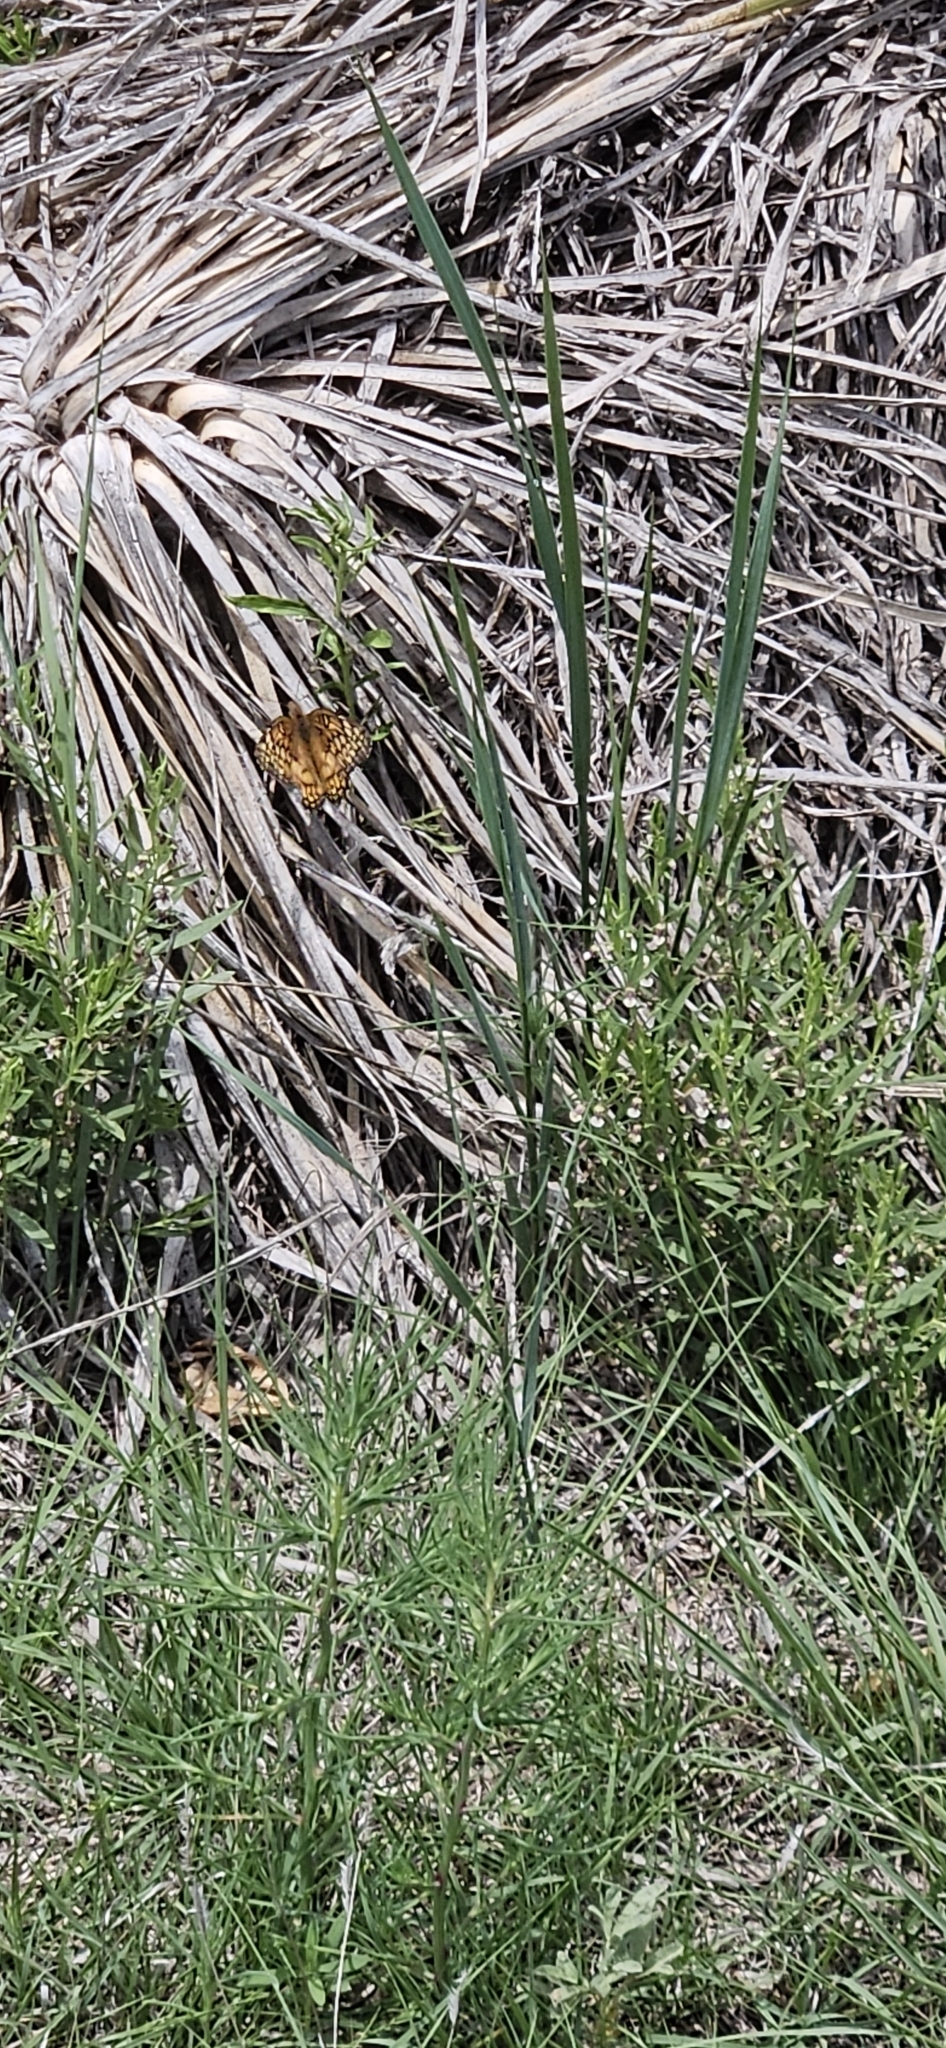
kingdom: Animalia
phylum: Arthropoda
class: Insecta
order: Lepidoptera
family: Nymphalidae
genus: Euptoieta
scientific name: Euptoieta claudia
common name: Variegated fritillary
